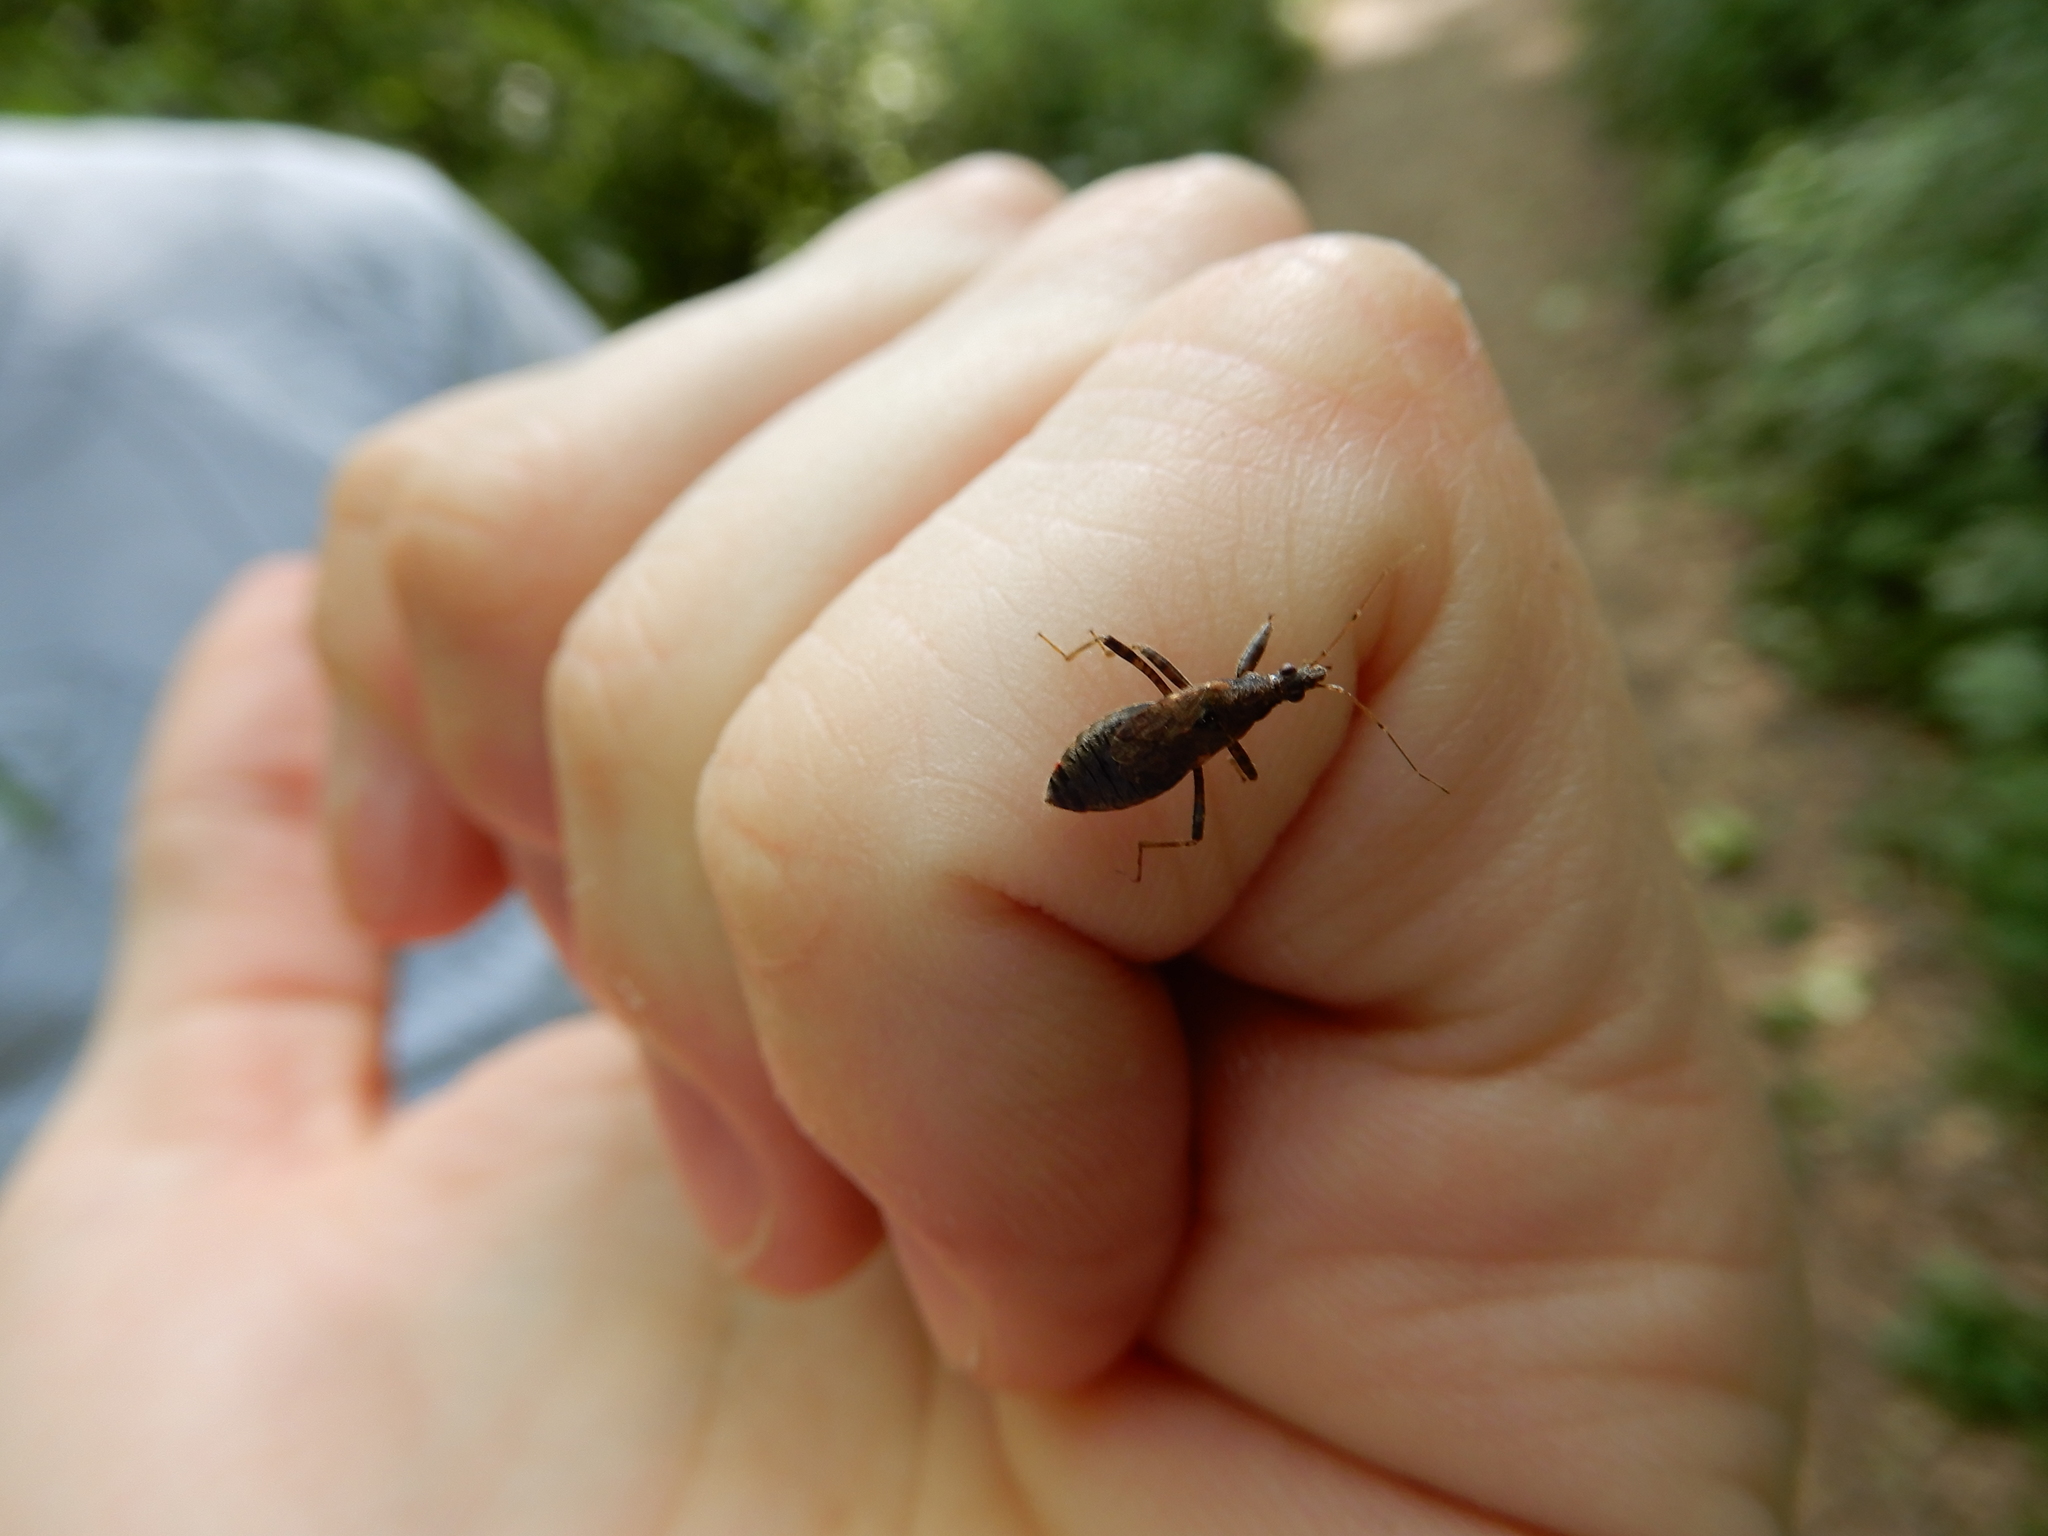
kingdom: Animalia
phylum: Arthropoda
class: Insecta
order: Hemiptera
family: Nabidae
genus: Himacerus
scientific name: Himacerus mirmicoides
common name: Ant damsel bug
